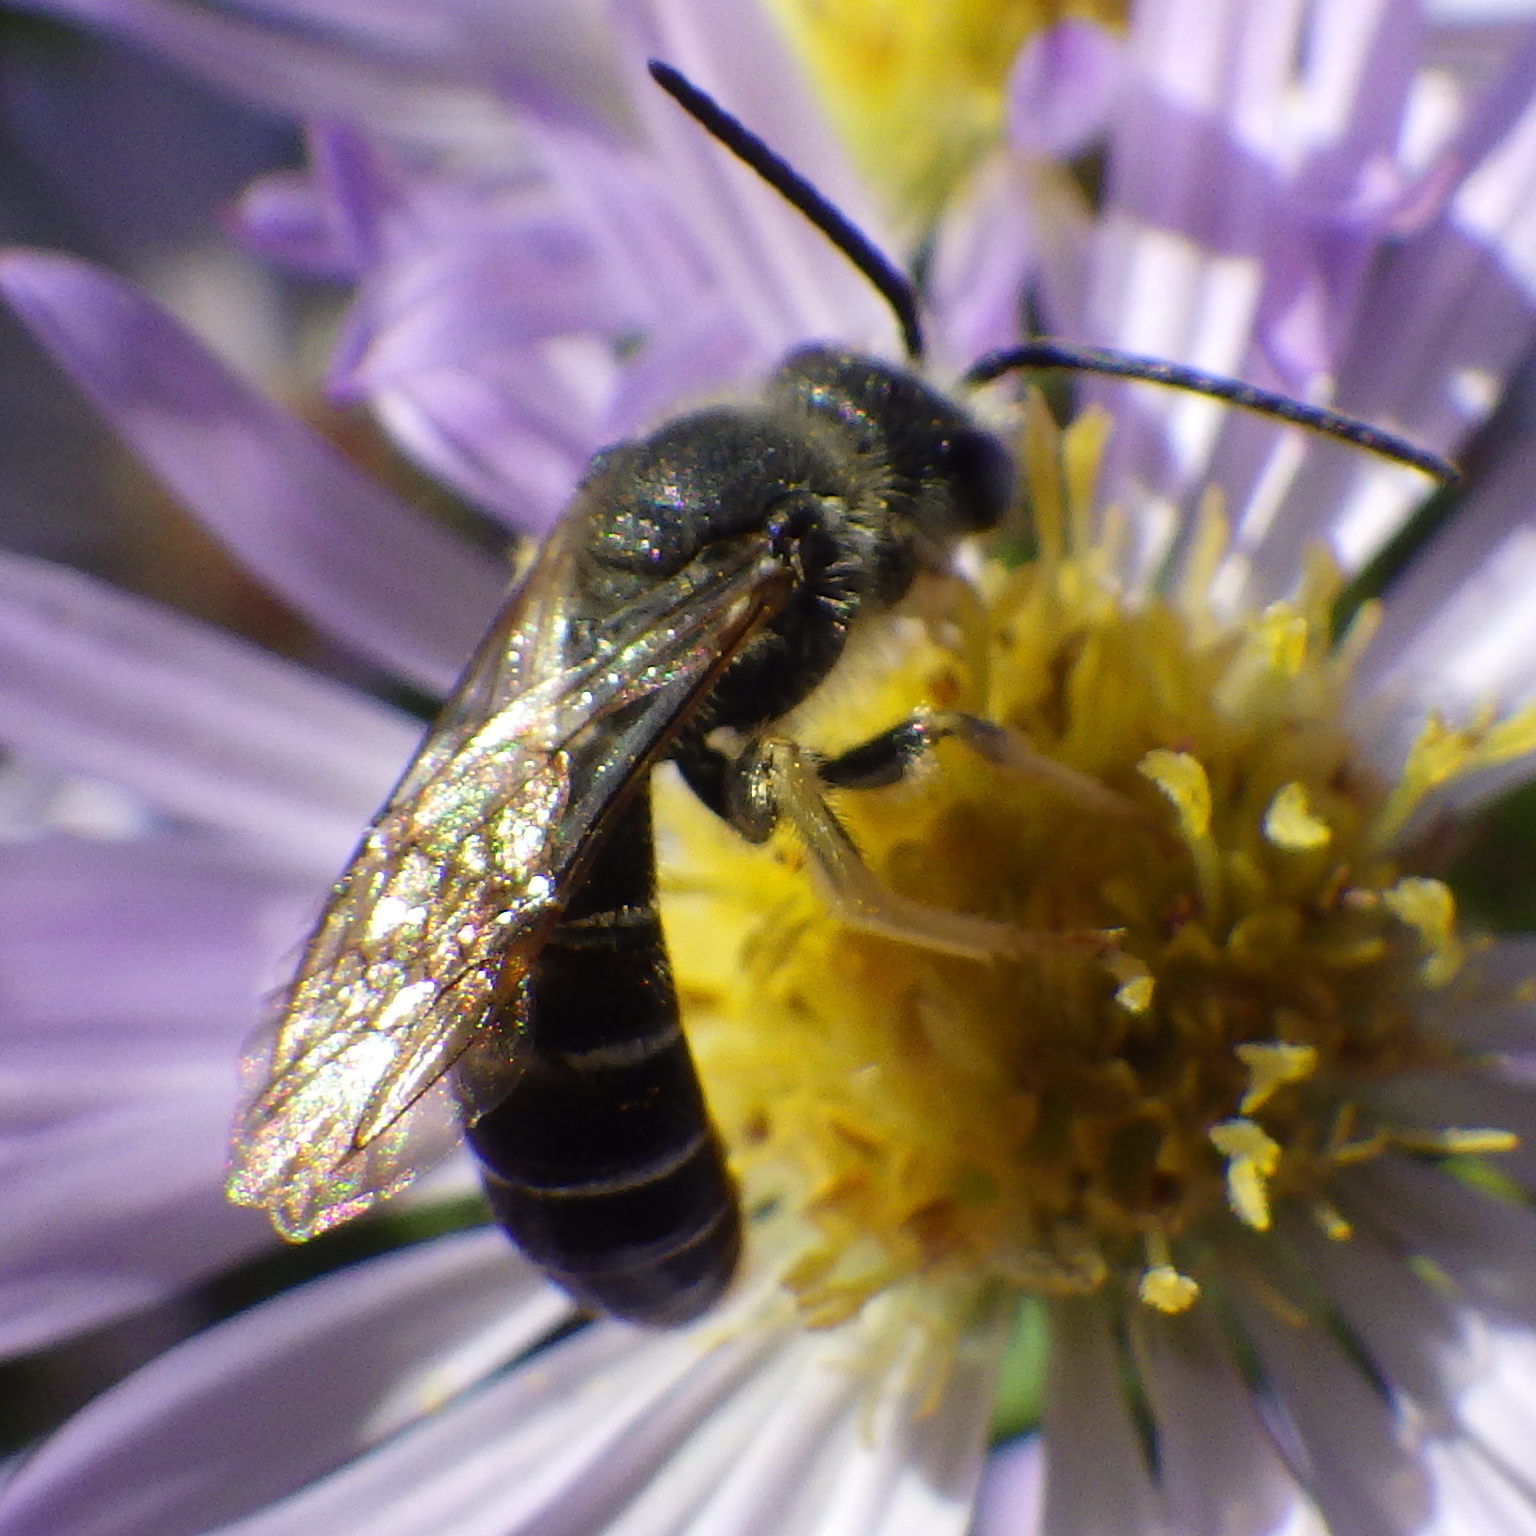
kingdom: Animalia
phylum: Arthropoda
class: Insecta
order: Hymenoptera
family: Halictidae
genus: Halictus
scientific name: Halictus rubicundus
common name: Orange-legged furrow bee
